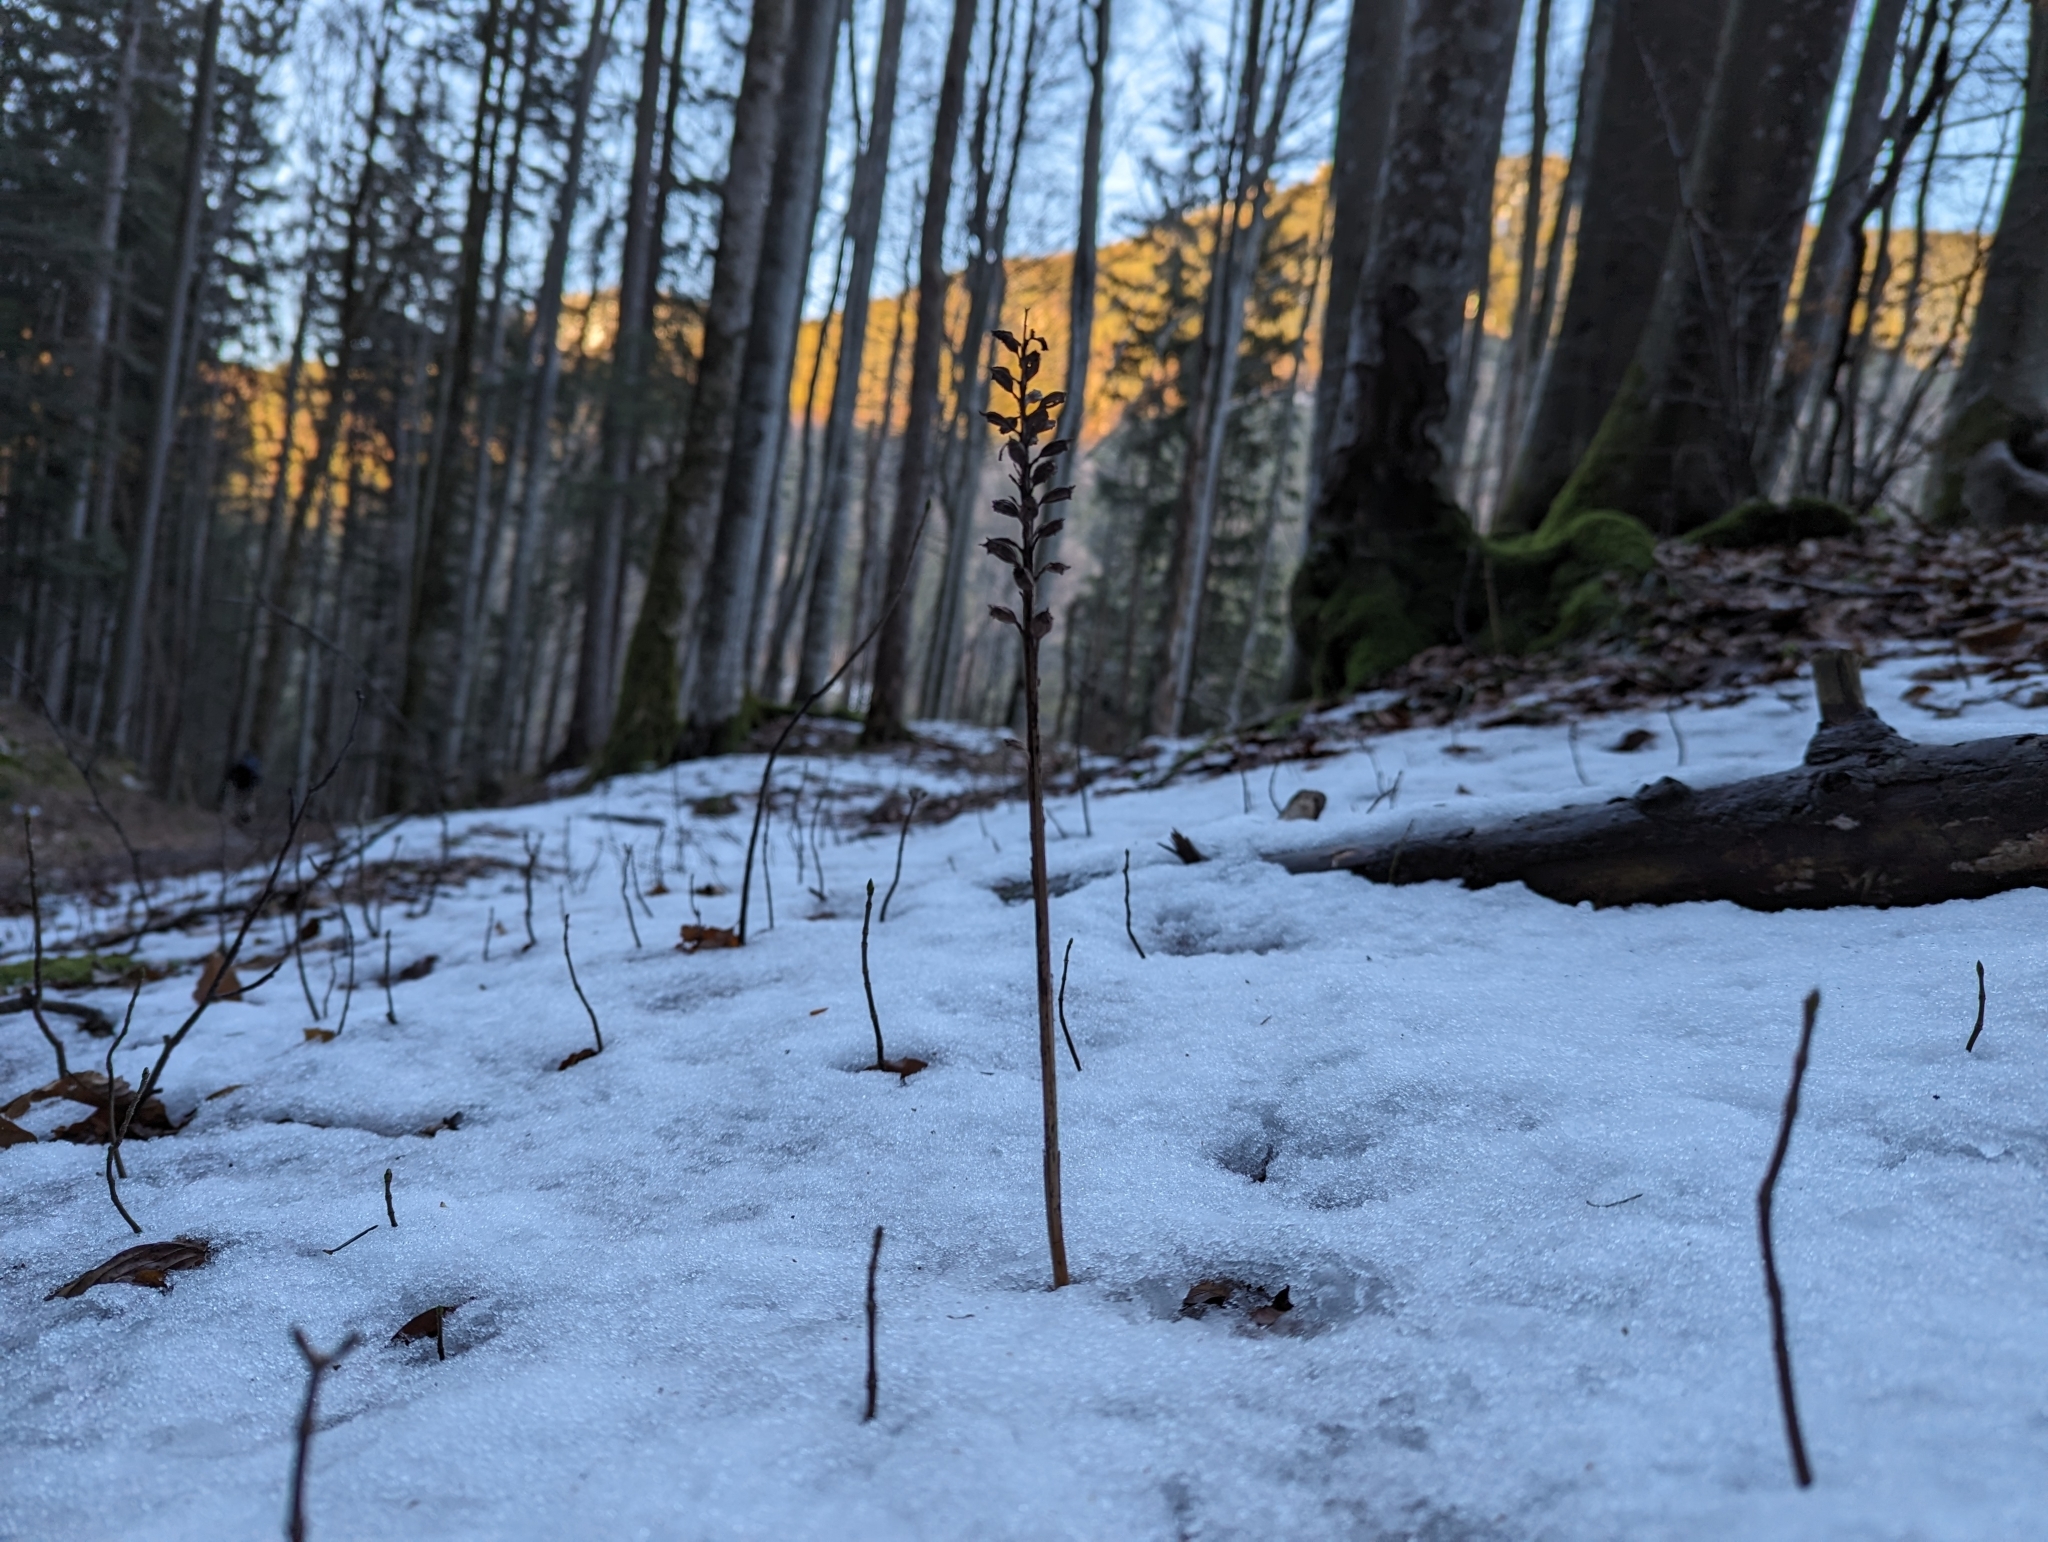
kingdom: Plantae
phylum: Tracheophyta
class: Liliopsida
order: Asparagales
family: Orchidaceae
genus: Neottia
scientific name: Neottia nidus-avis
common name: Bird's-nest orchid
